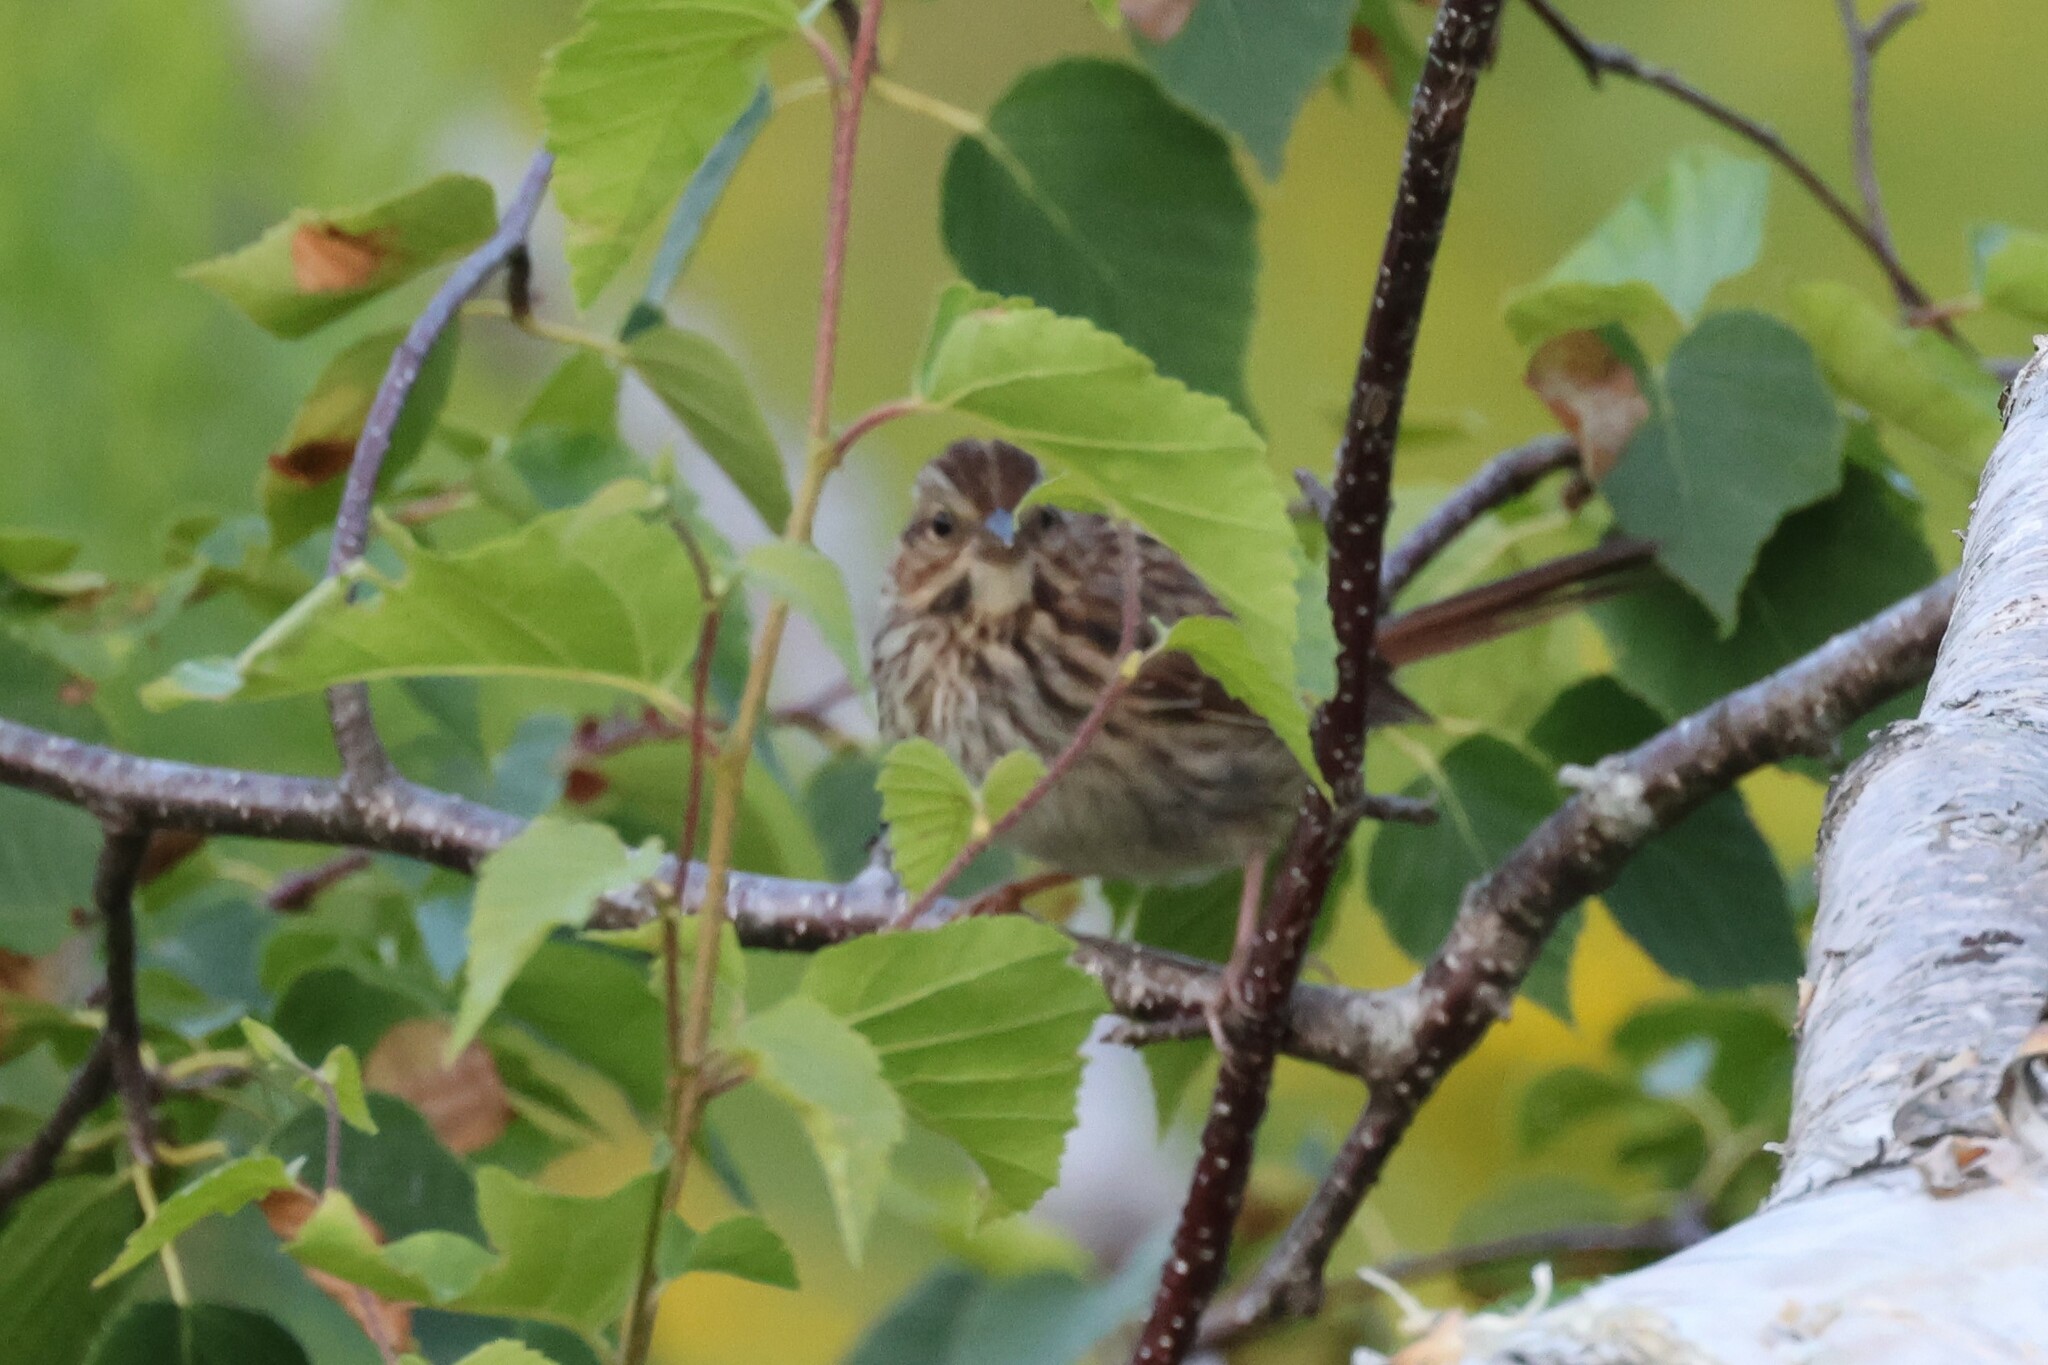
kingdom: Animalia
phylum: Chordata
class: Aves
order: Passeriformes
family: Passerellidae
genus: Melospiza
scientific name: Melospiza melodia
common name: Song sparrow
